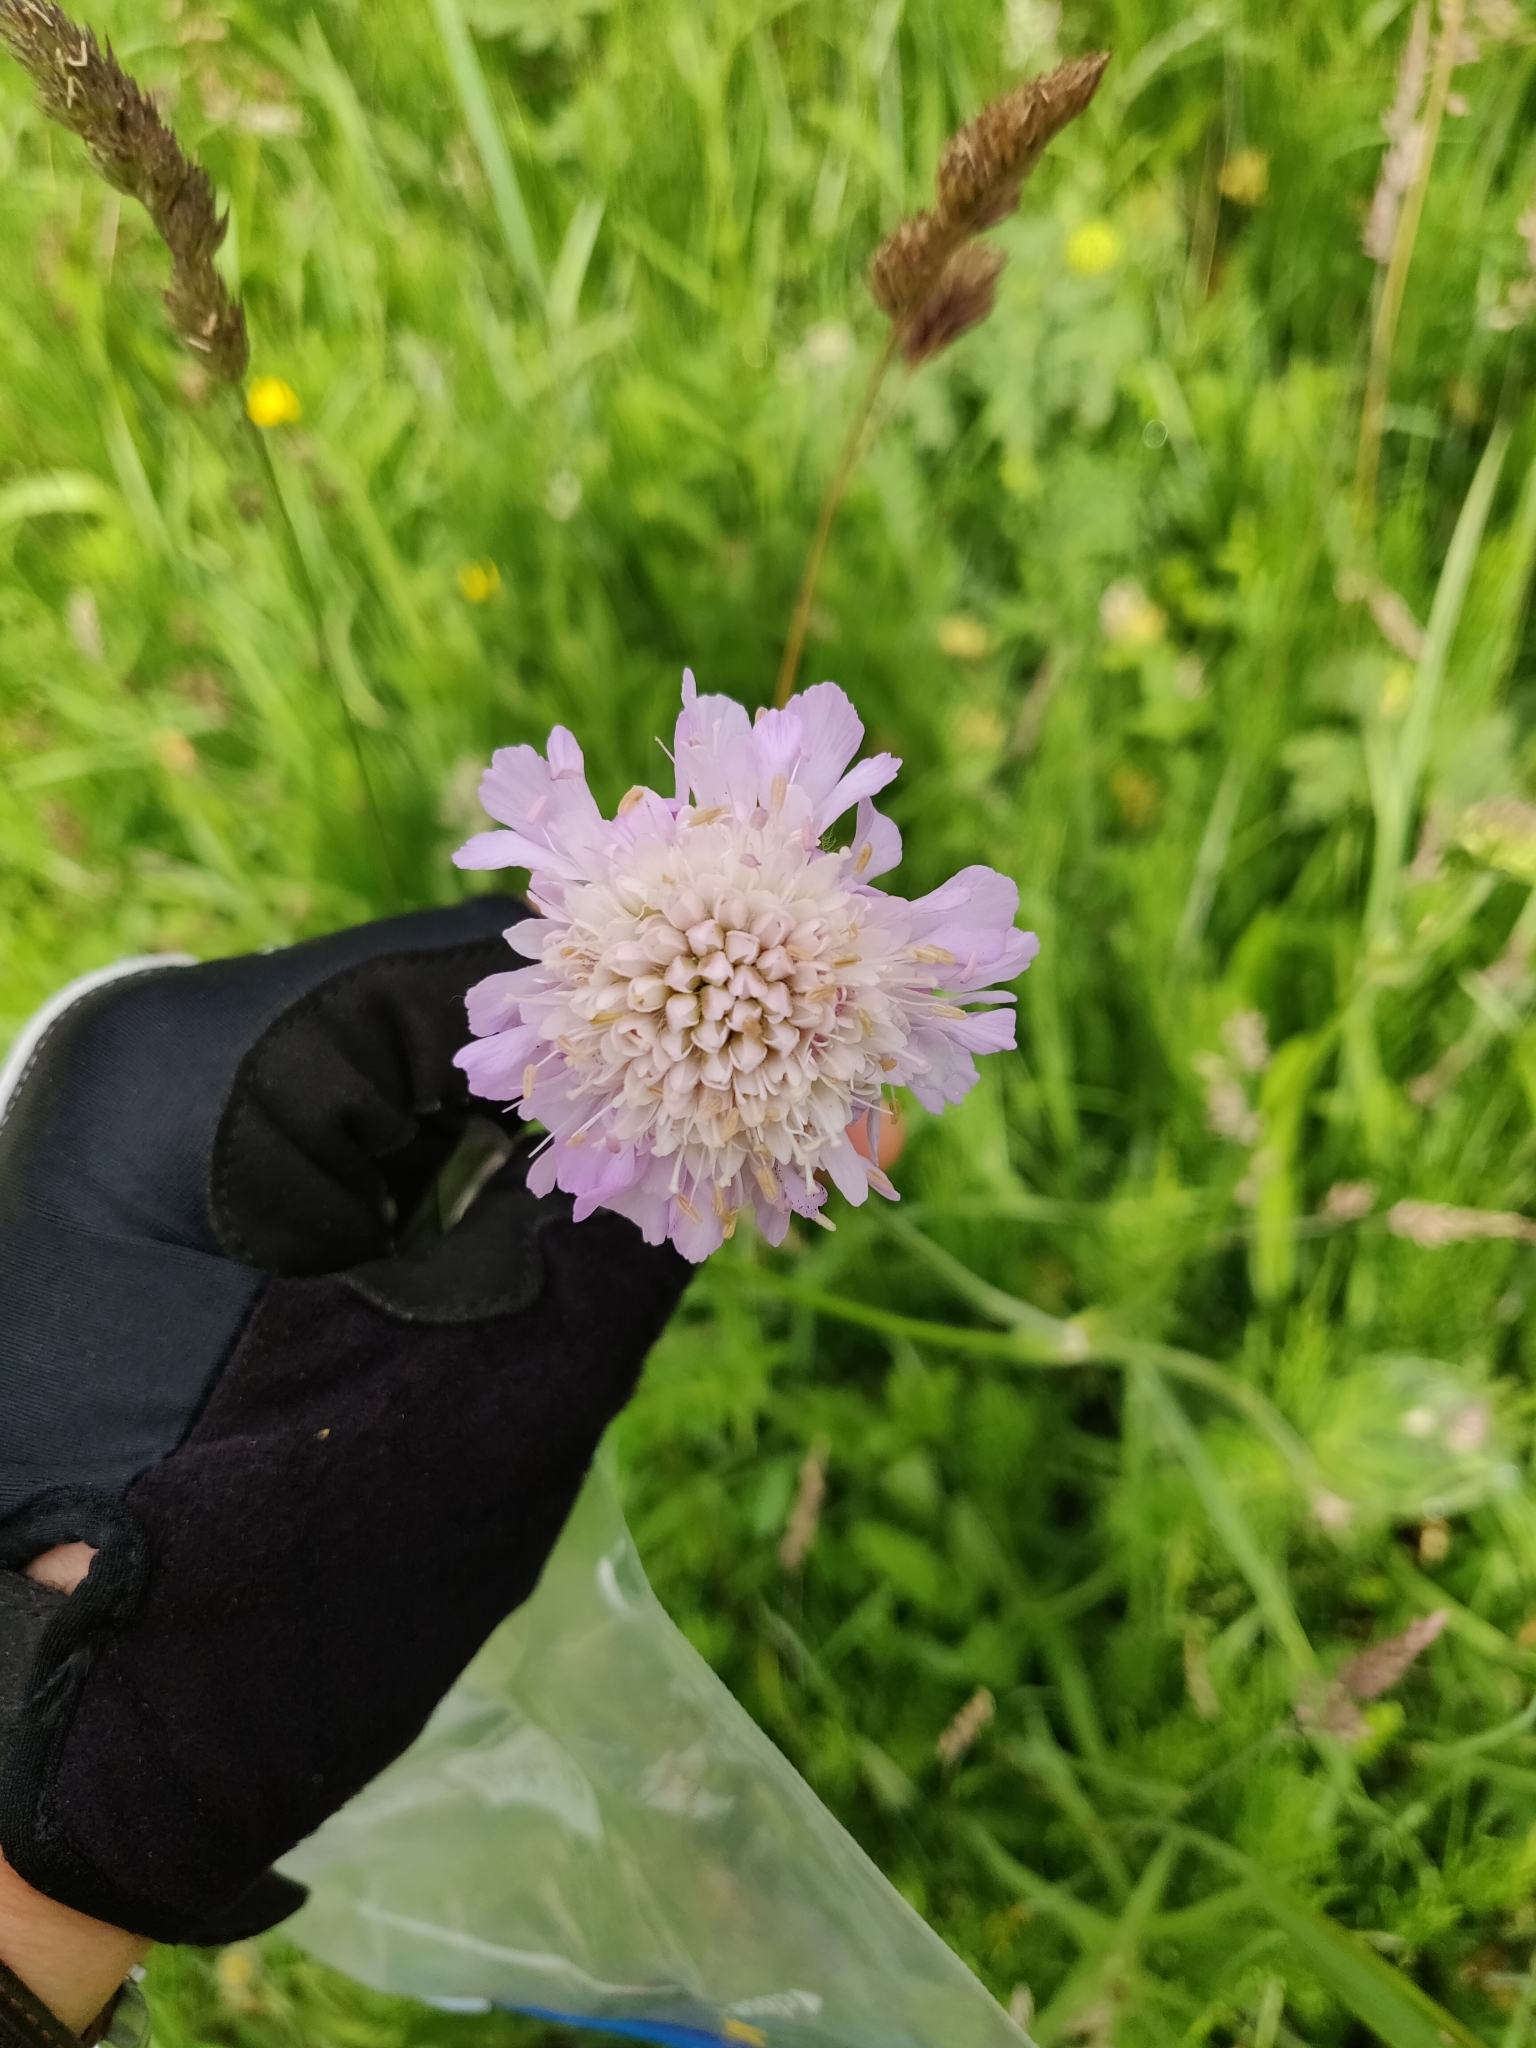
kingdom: Plantae
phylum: Tracheophyta
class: Magnoliopsida
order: Dipsacales
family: Caprifoliaceae
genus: Knautia
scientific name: Knautia arvensis
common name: Field scabiosa
